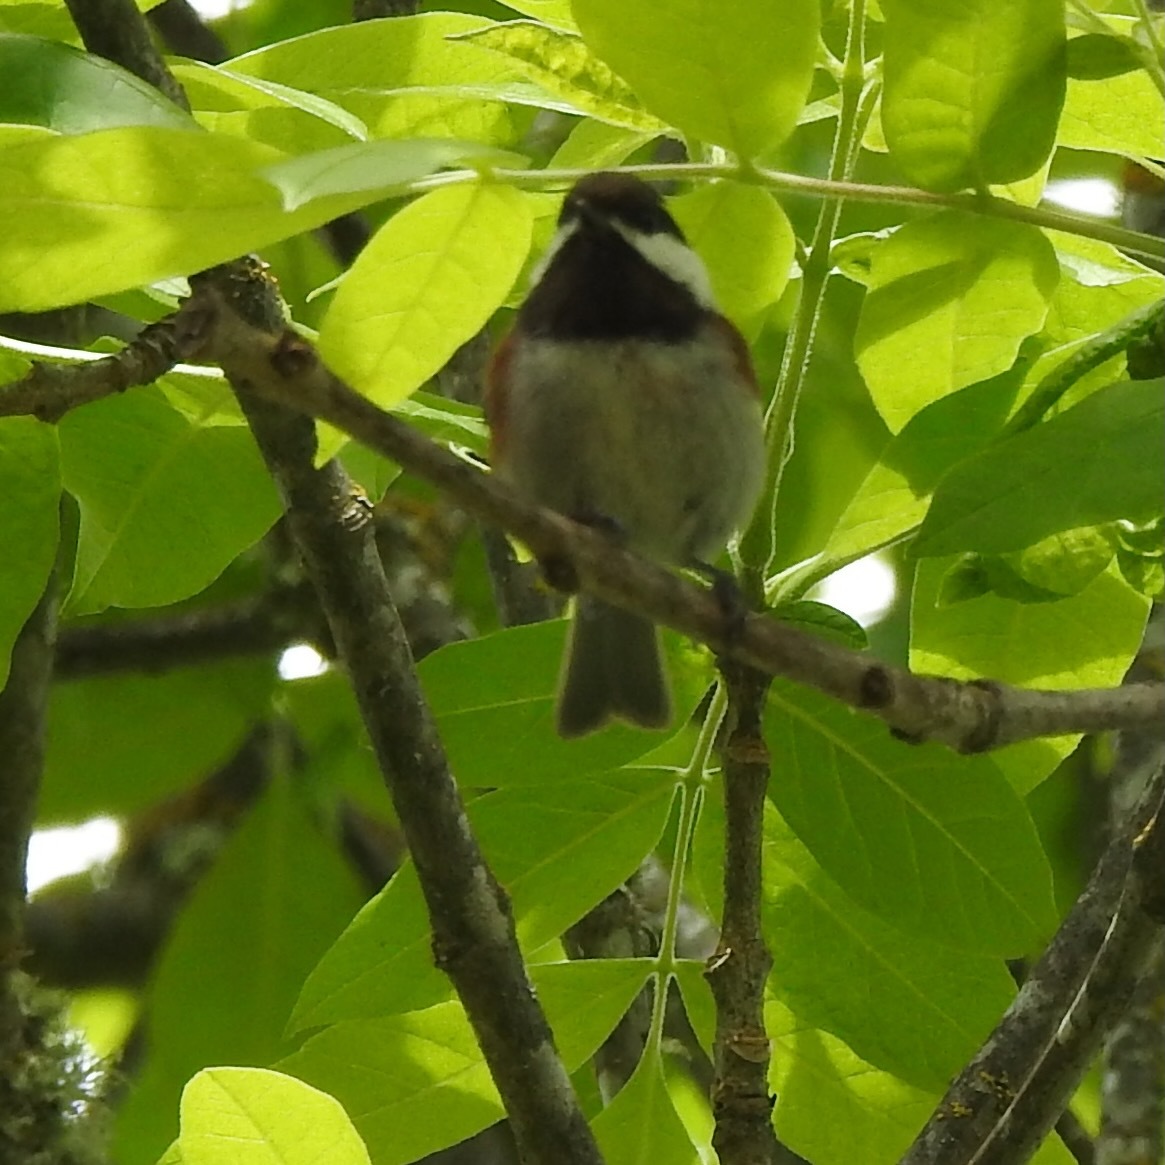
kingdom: Animalia
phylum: Chordata
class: Aves
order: Passeriformes
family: Paridae
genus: Poecile
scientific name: Poecile rufescens
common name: Chestnut-backed chickadee
